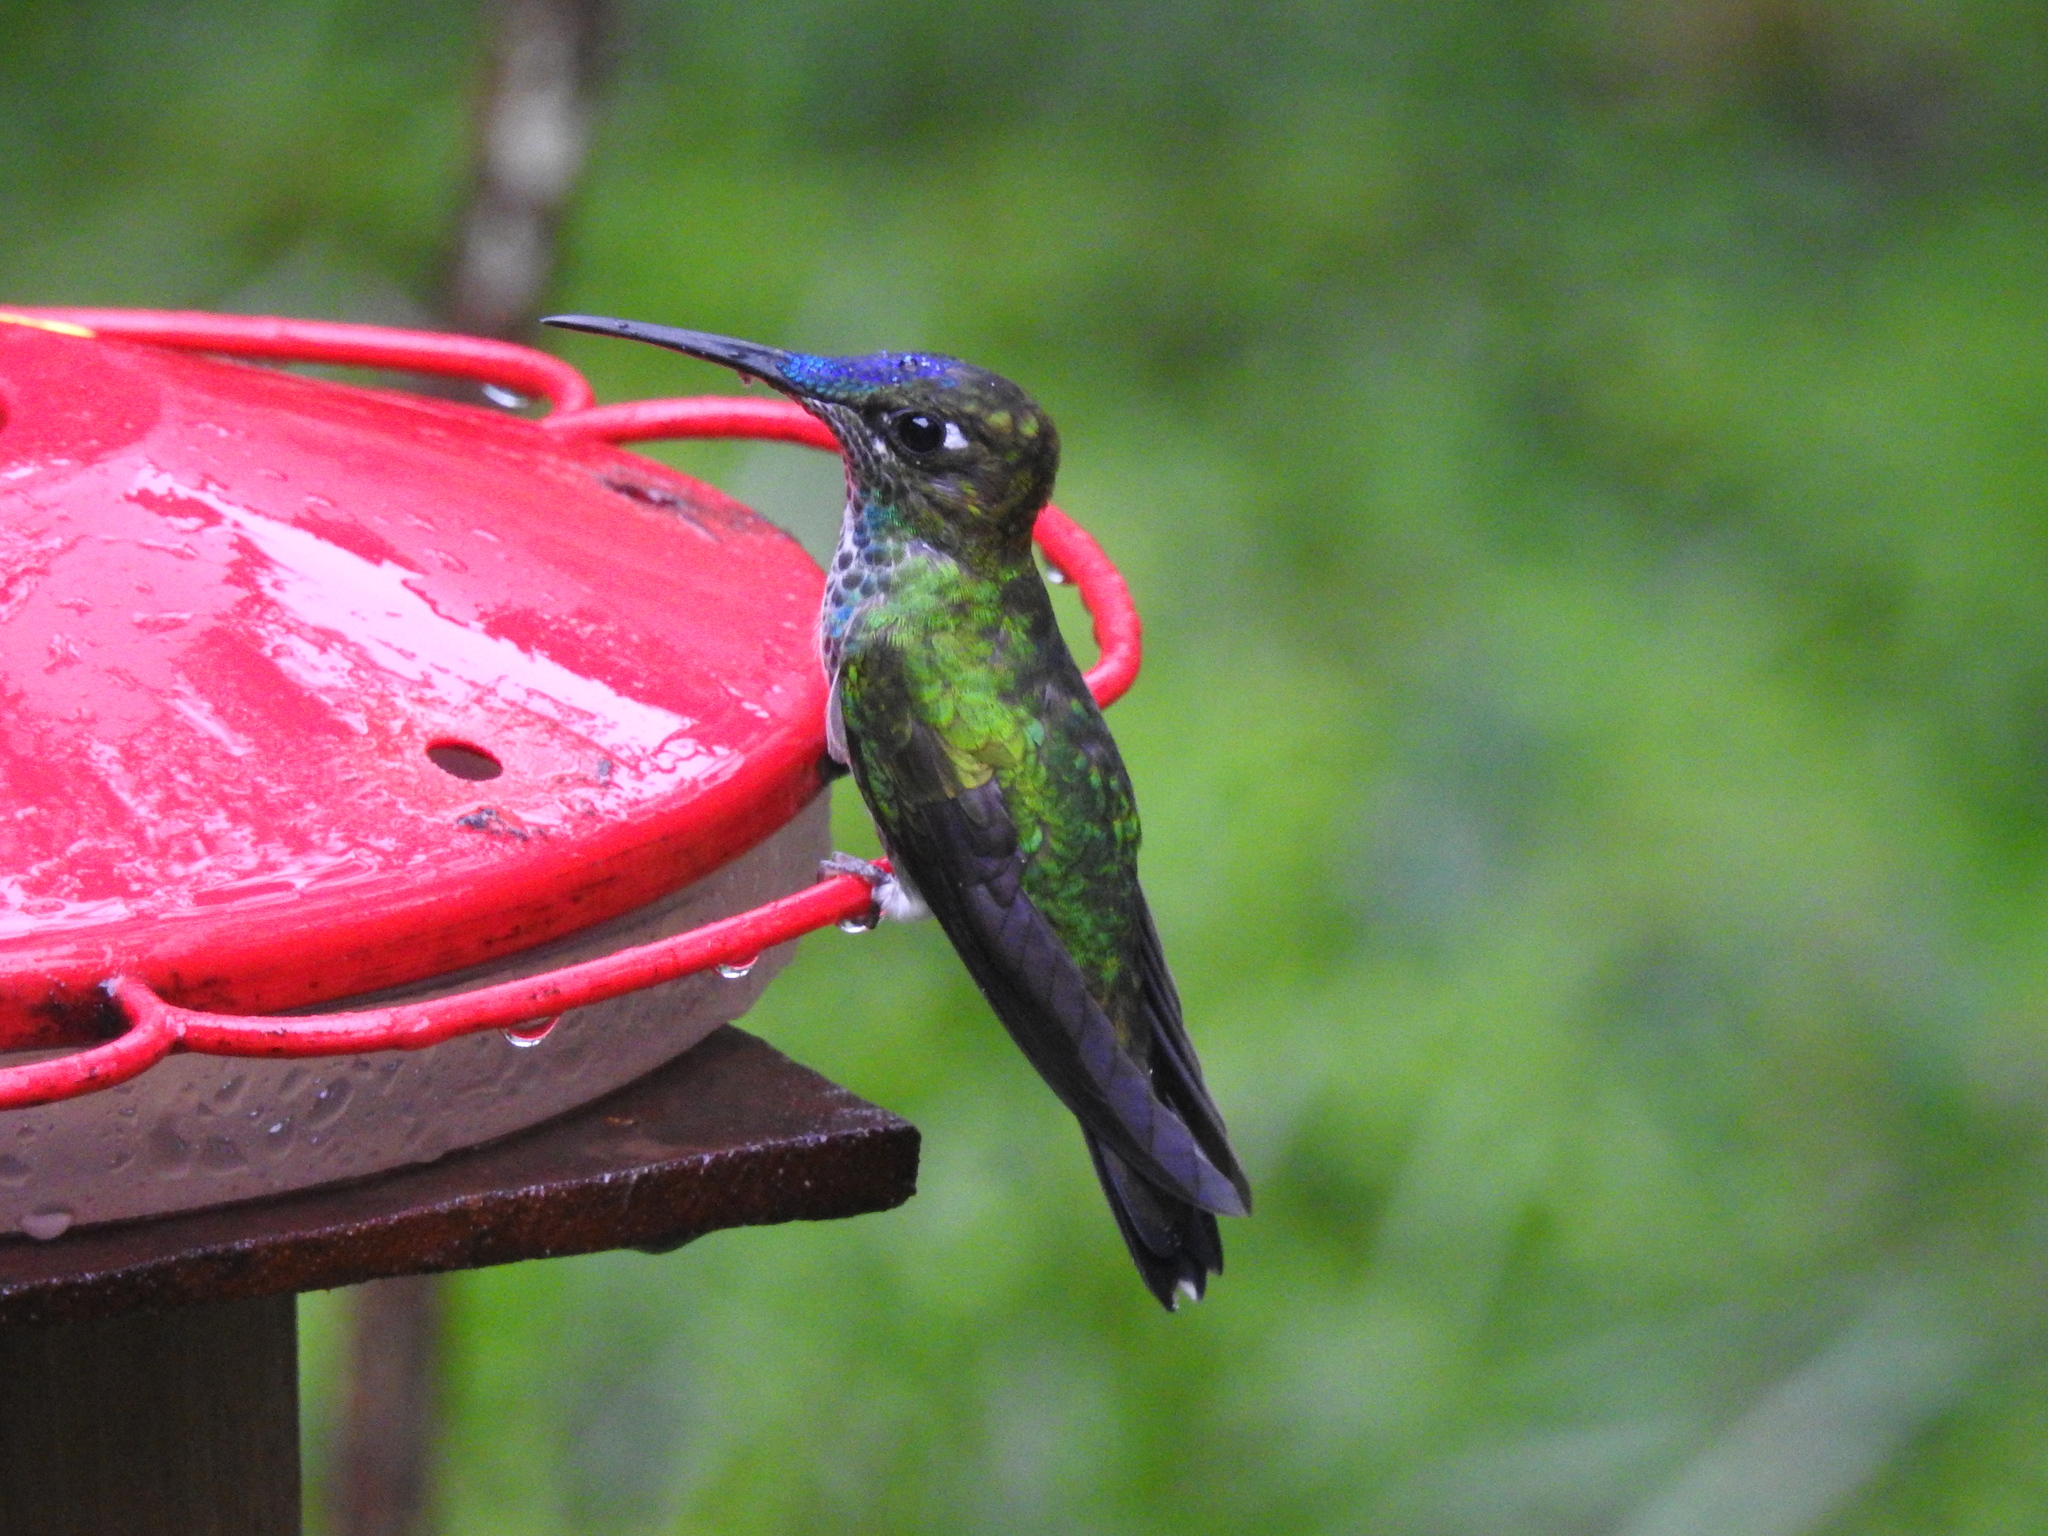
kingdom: Animalia
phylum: Chordata
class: Aves
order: Apodiformes
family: Trochilidae
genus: Heliodoxa
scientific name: Heliodoxa leadbeateri
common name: Violet-fronted brilliant
